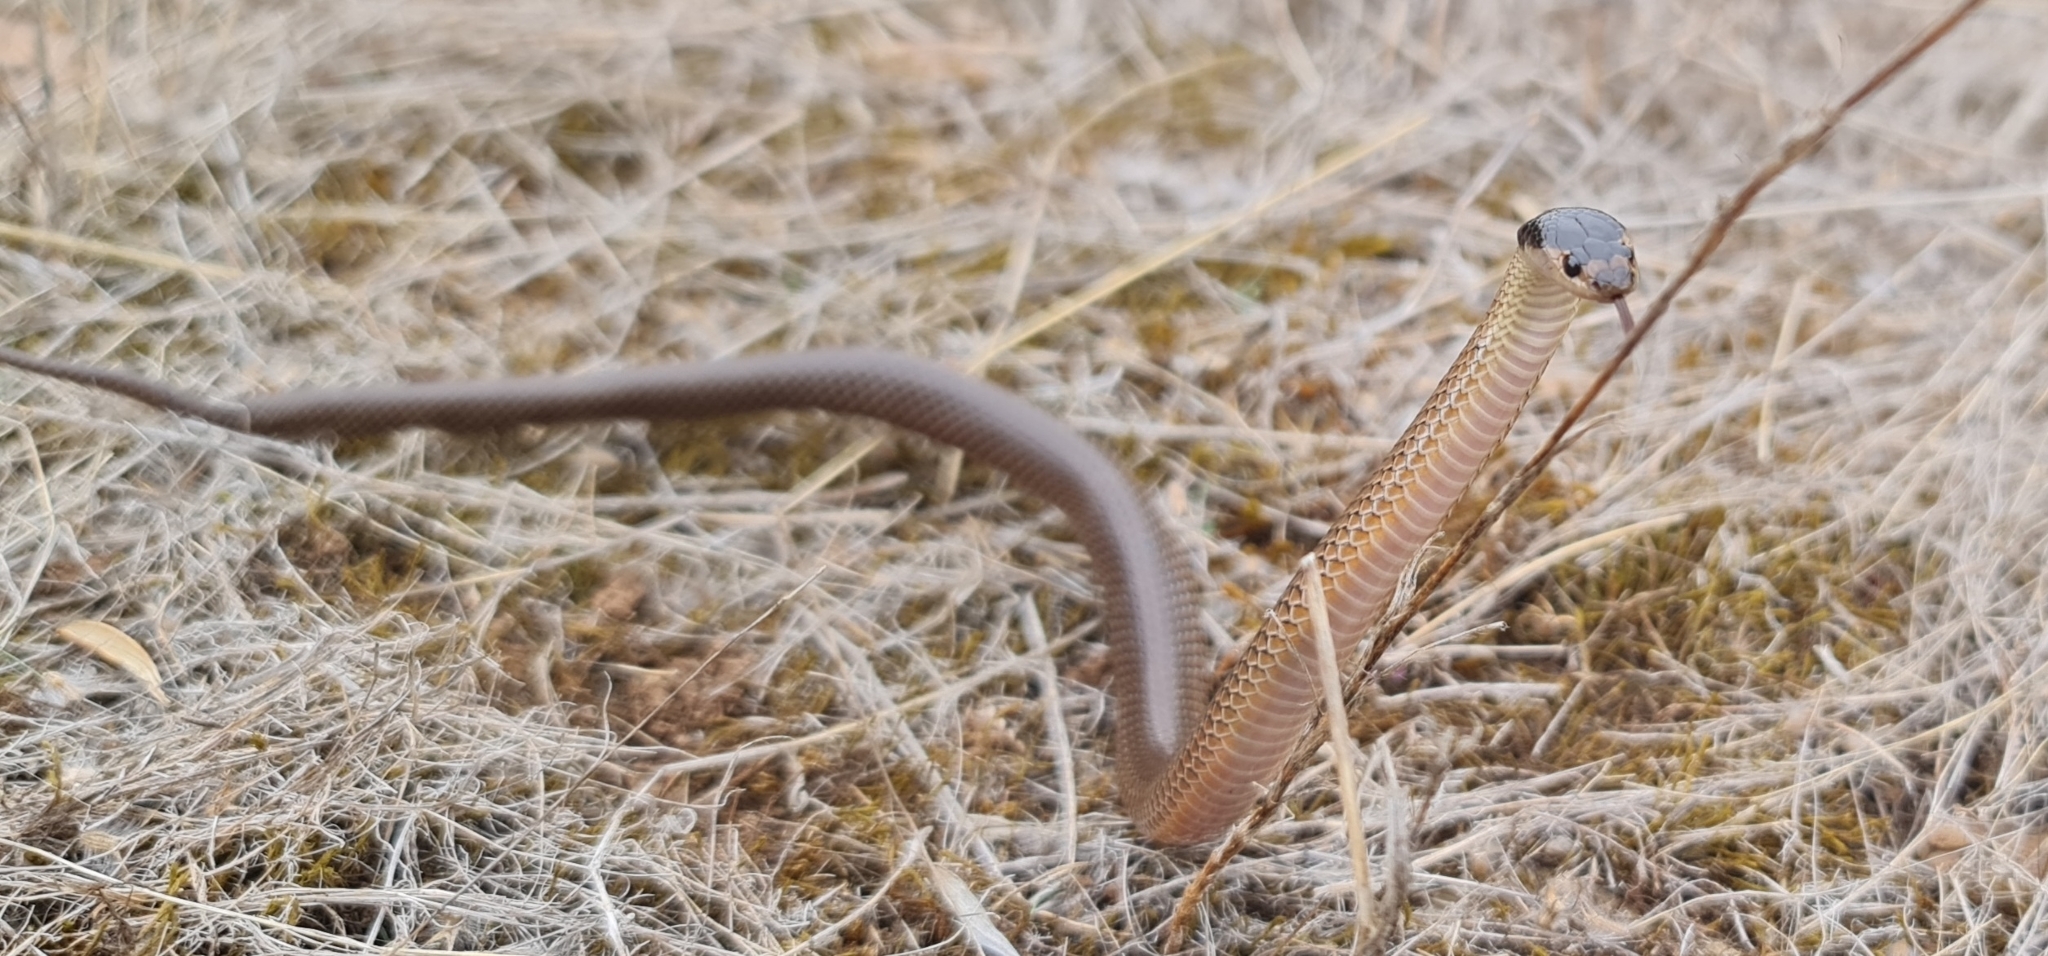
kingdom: Animalia
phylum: Chordata
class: Squamata
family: Elapidae
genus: Suta
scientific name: Suta flagellum
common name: Little whip snake
